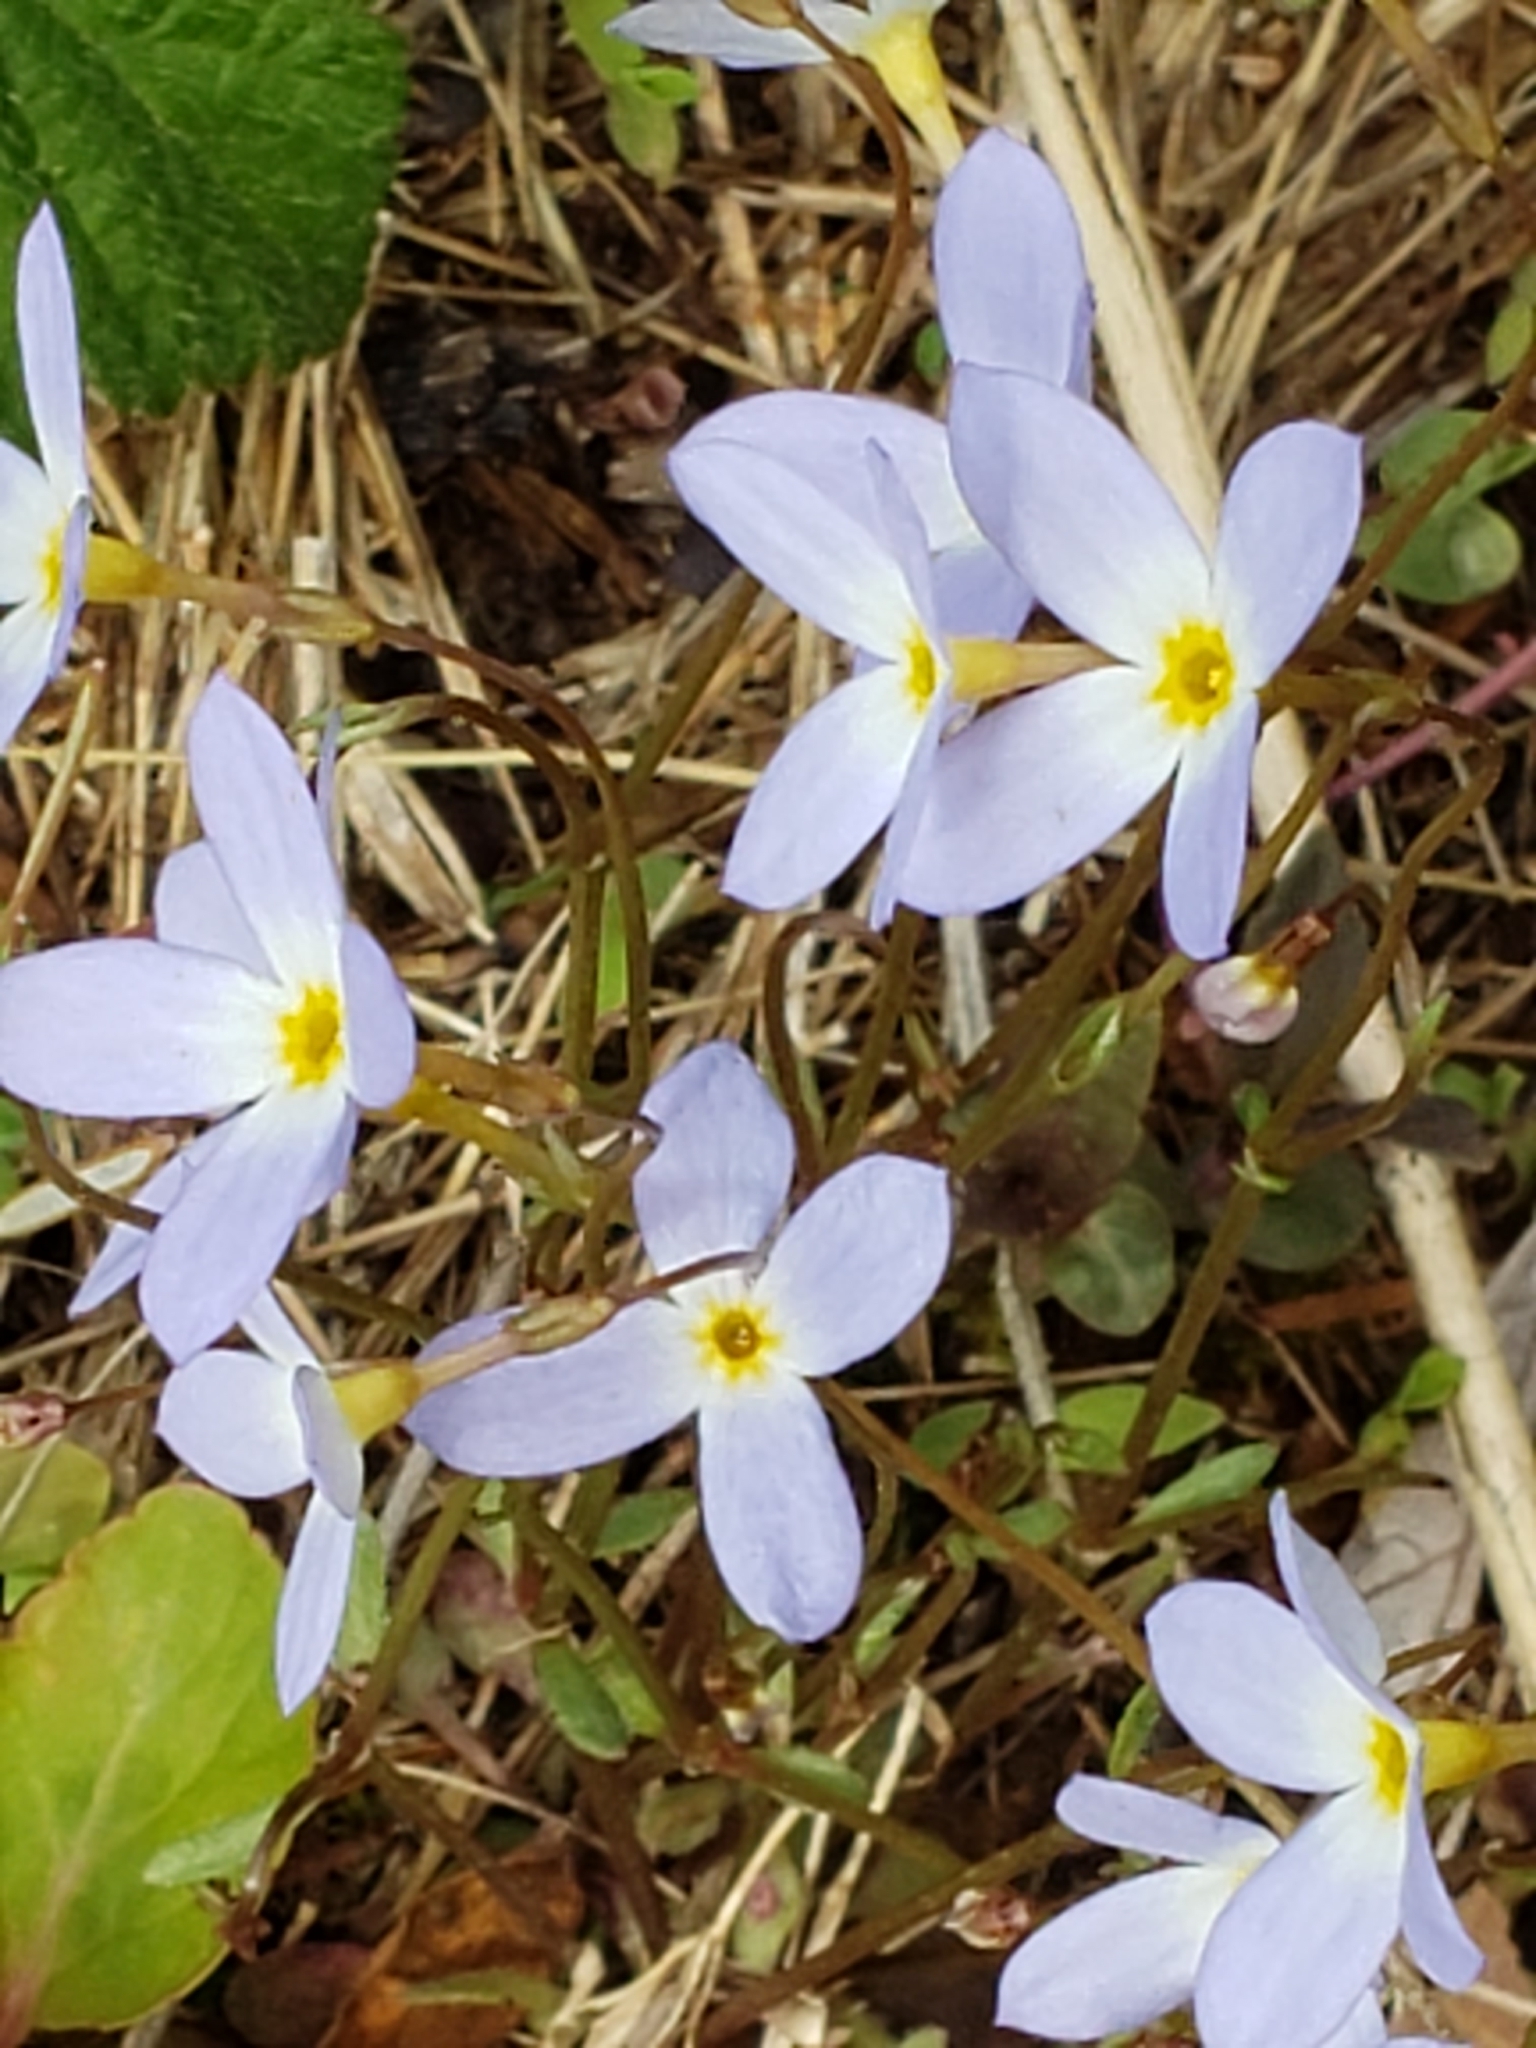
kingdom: Plantae
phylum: Tracheophyta
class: Magnoliopsida
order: Gentianales
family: Rubiaceae
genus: Houstonia
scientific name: Houstonia caerulea
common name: Bluets
